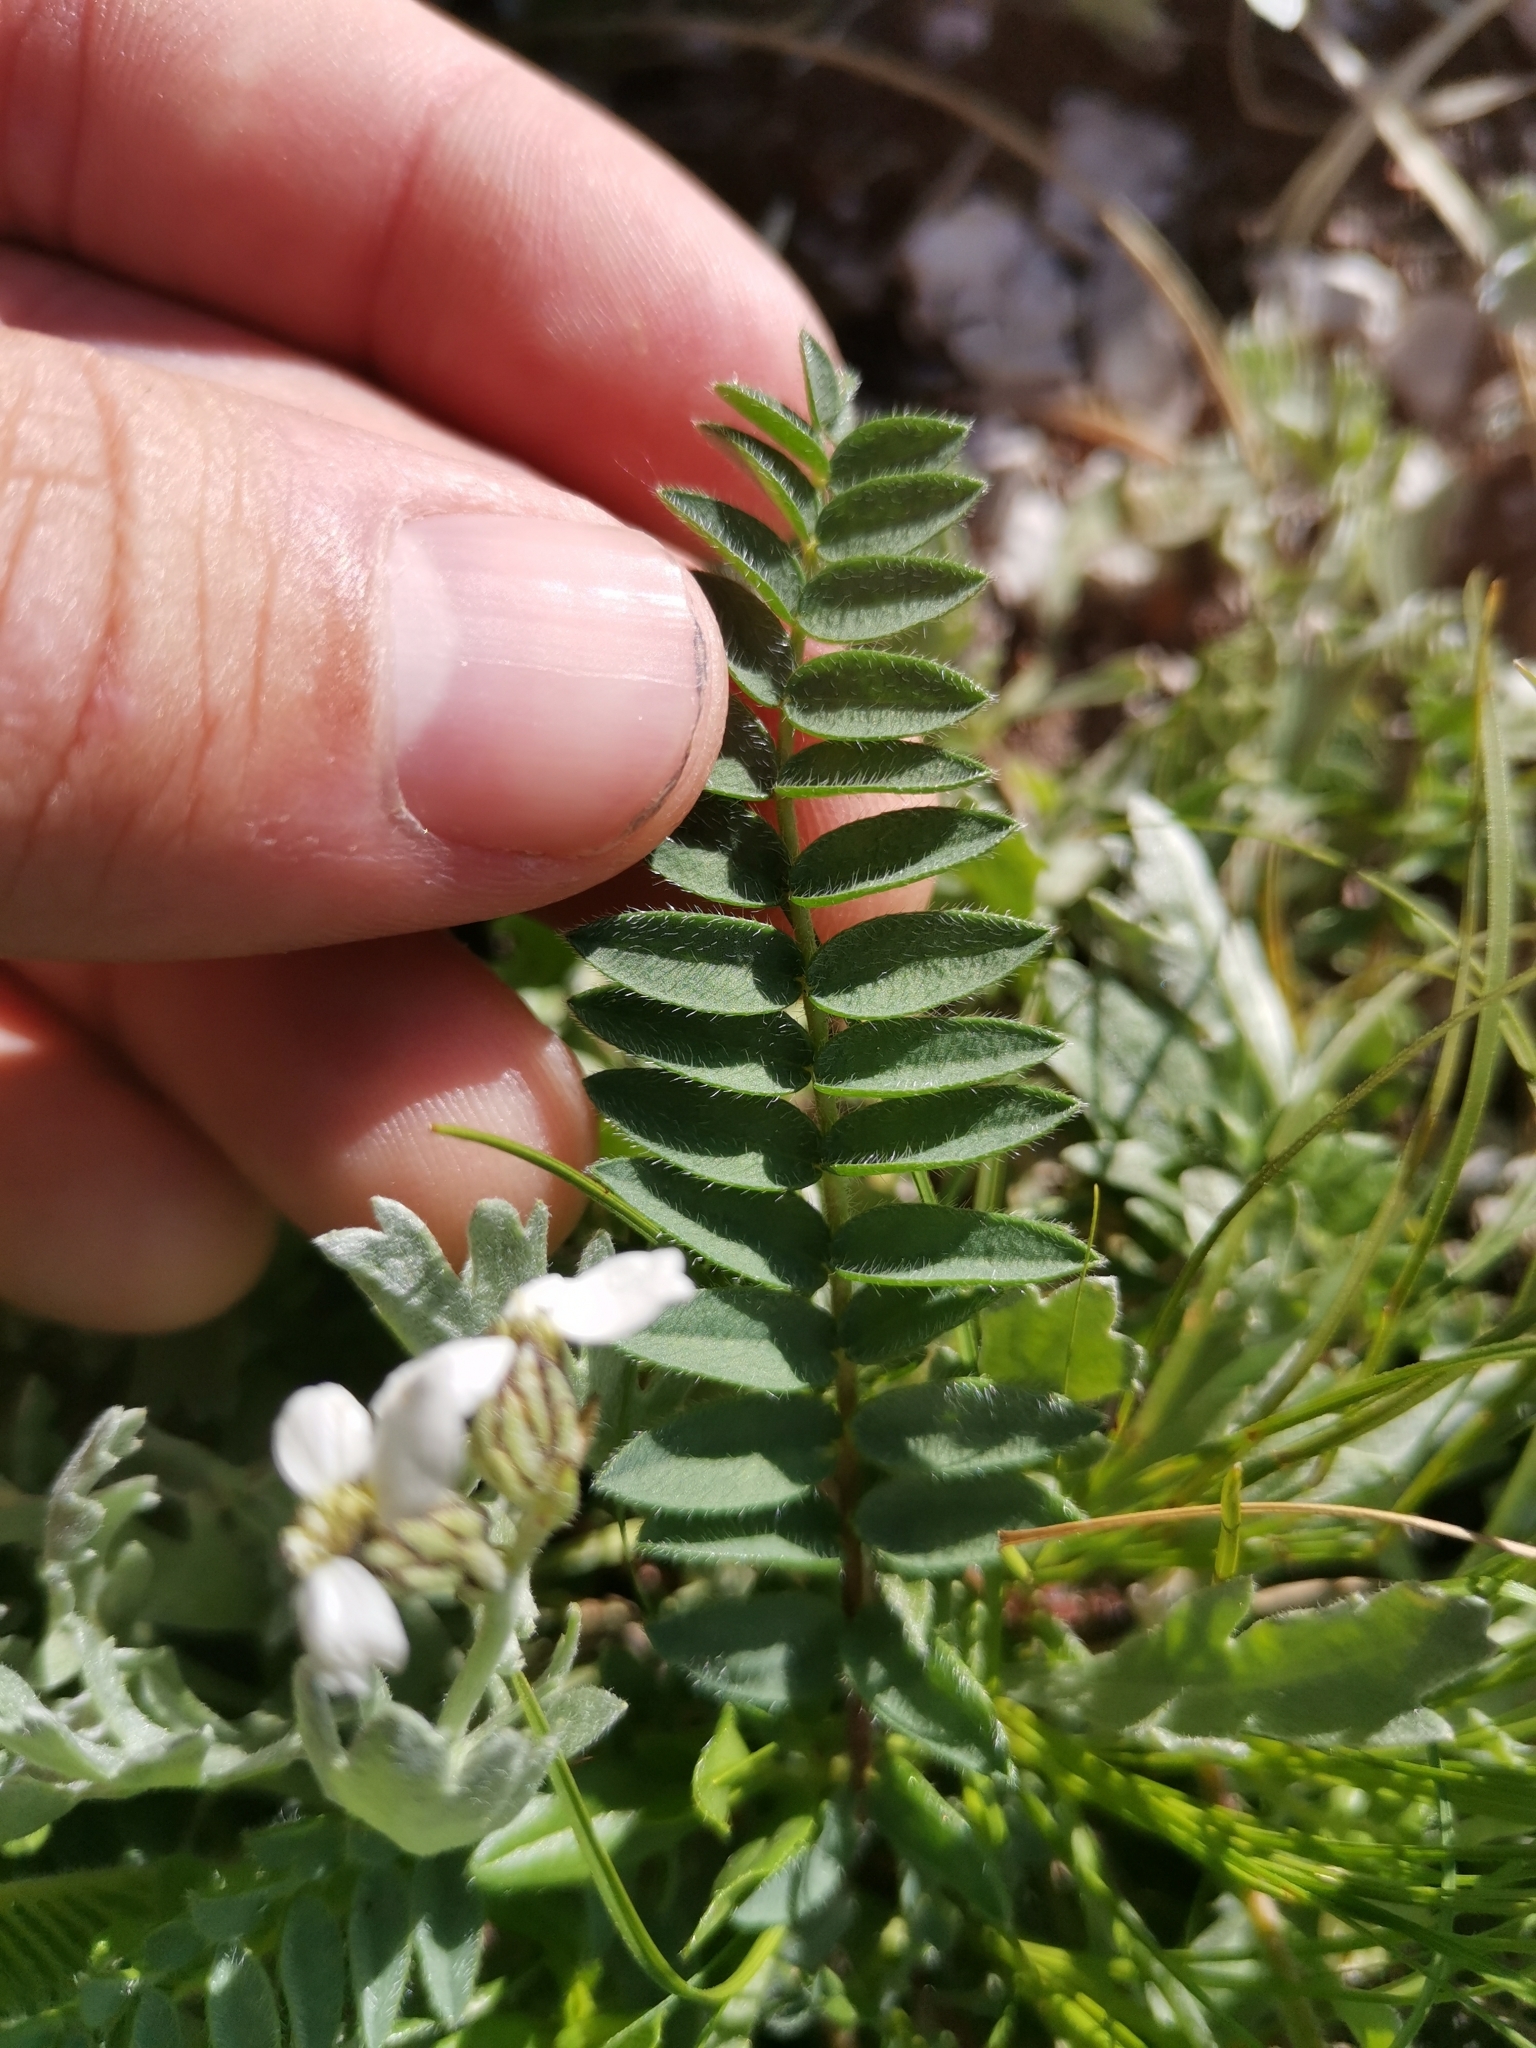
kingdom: Plantae
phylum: Tracheophyta
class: Magnoliopsida
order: Fabales
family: Fabaceae
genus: Oxytropis
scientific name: Oxytropis neglecta
